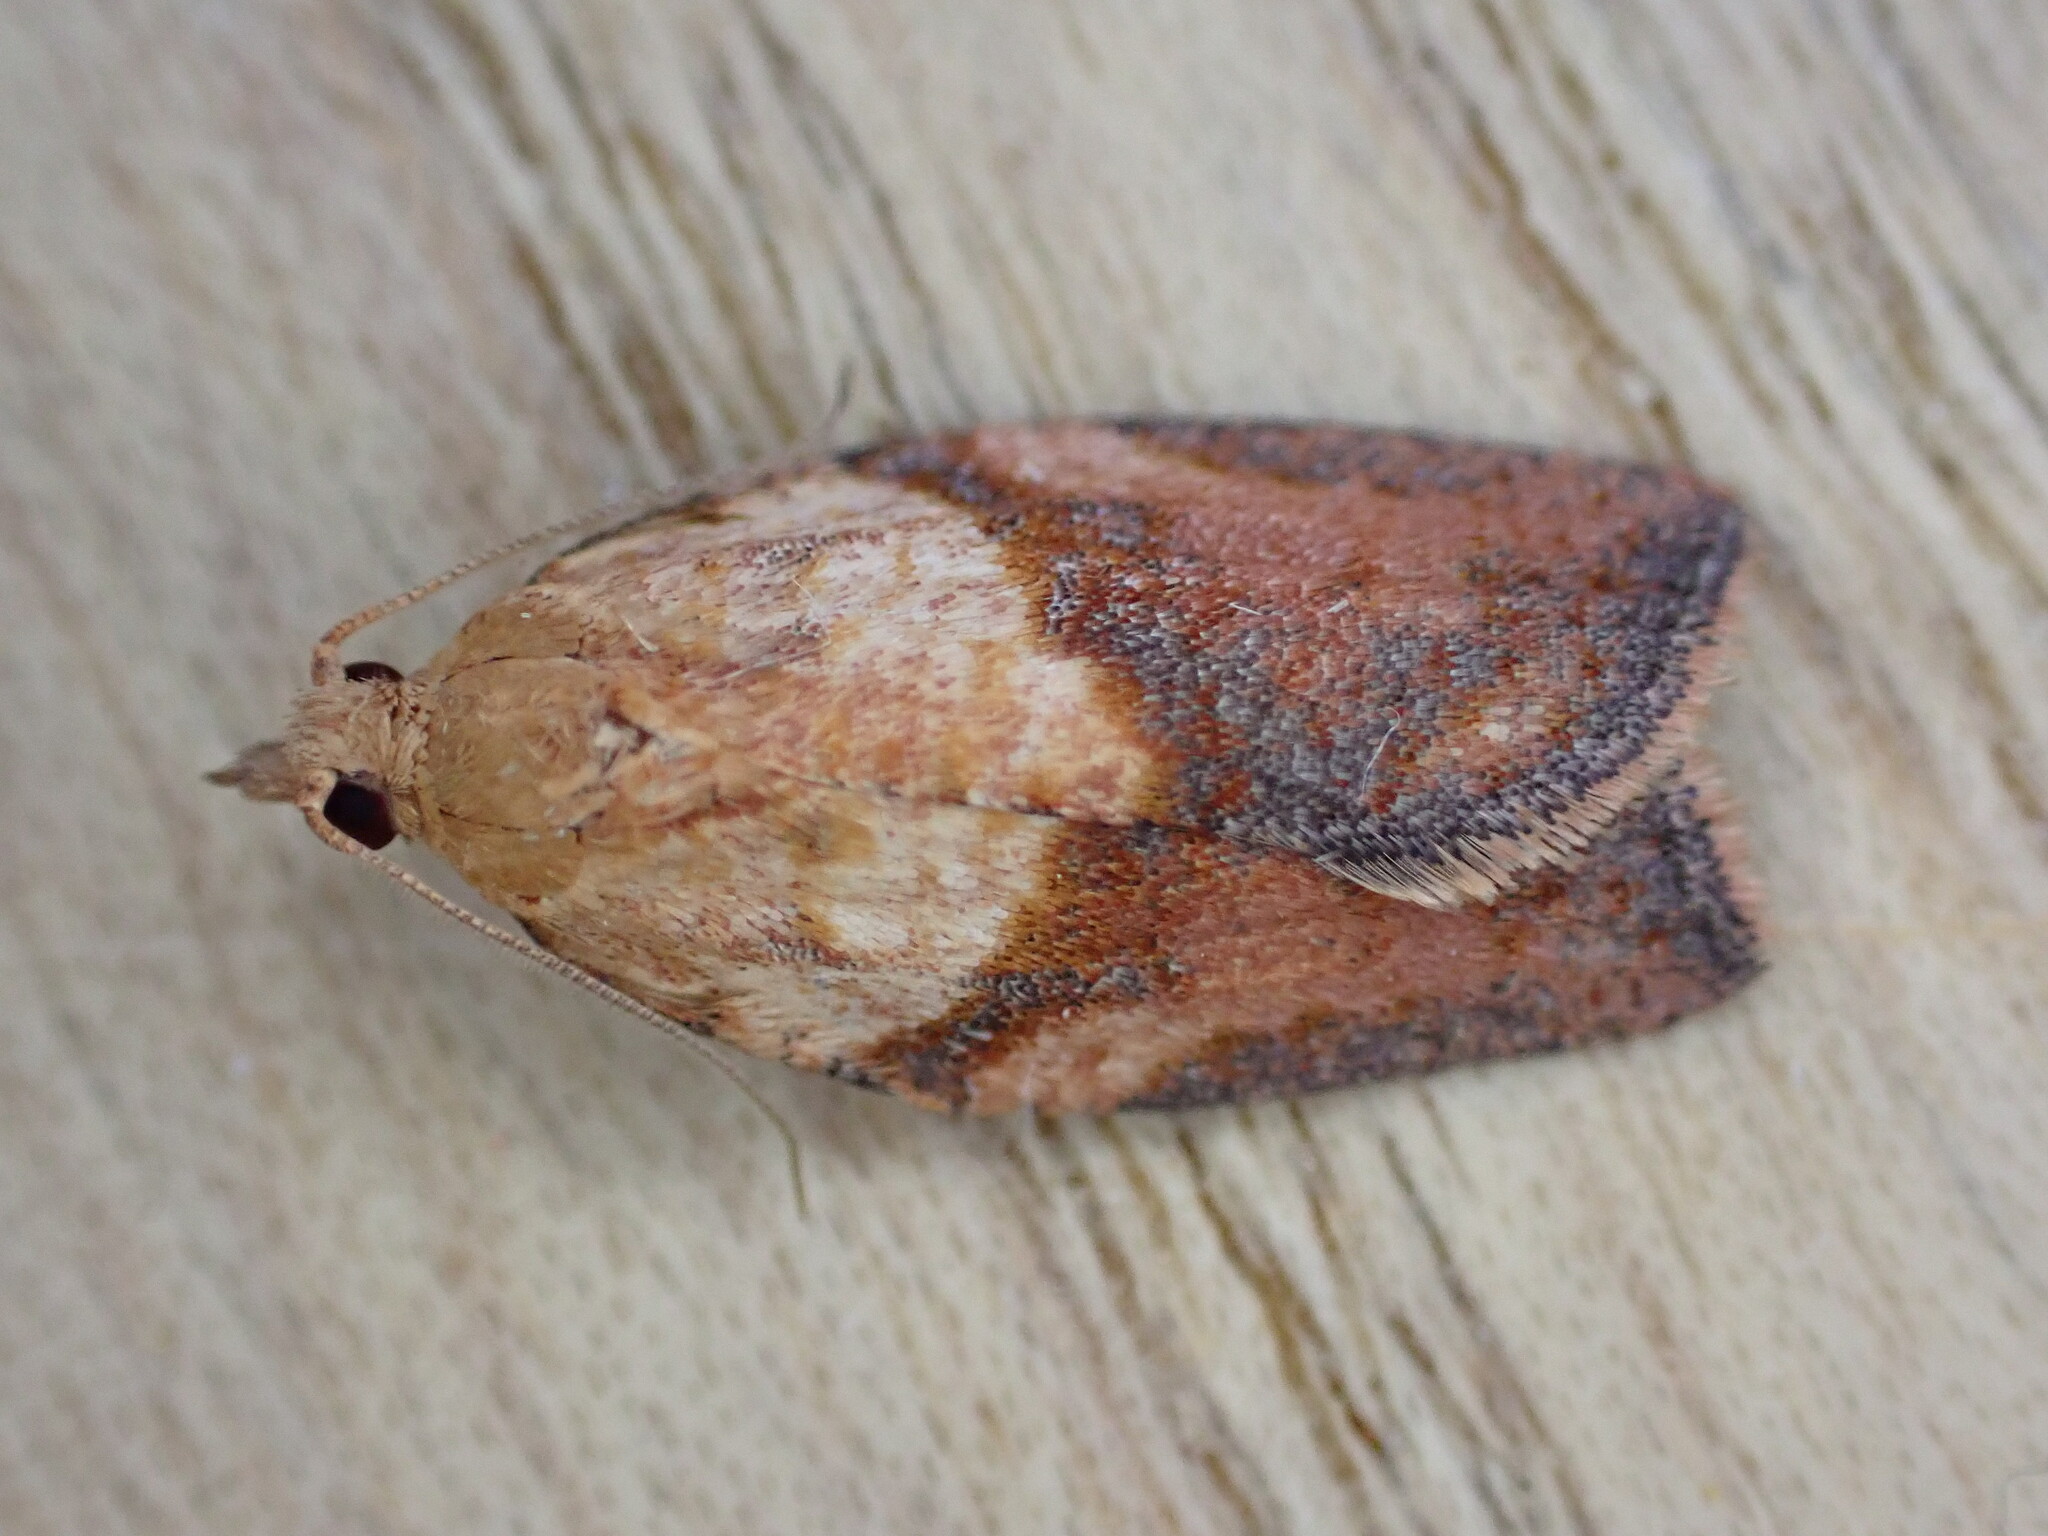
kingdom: Animalia
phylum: Arthropoda
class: Insecta
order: Lepidoptera
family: Tortricidae
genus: Epiphyas
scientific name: Epiphyas postvittana
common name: Light brown apple moth
